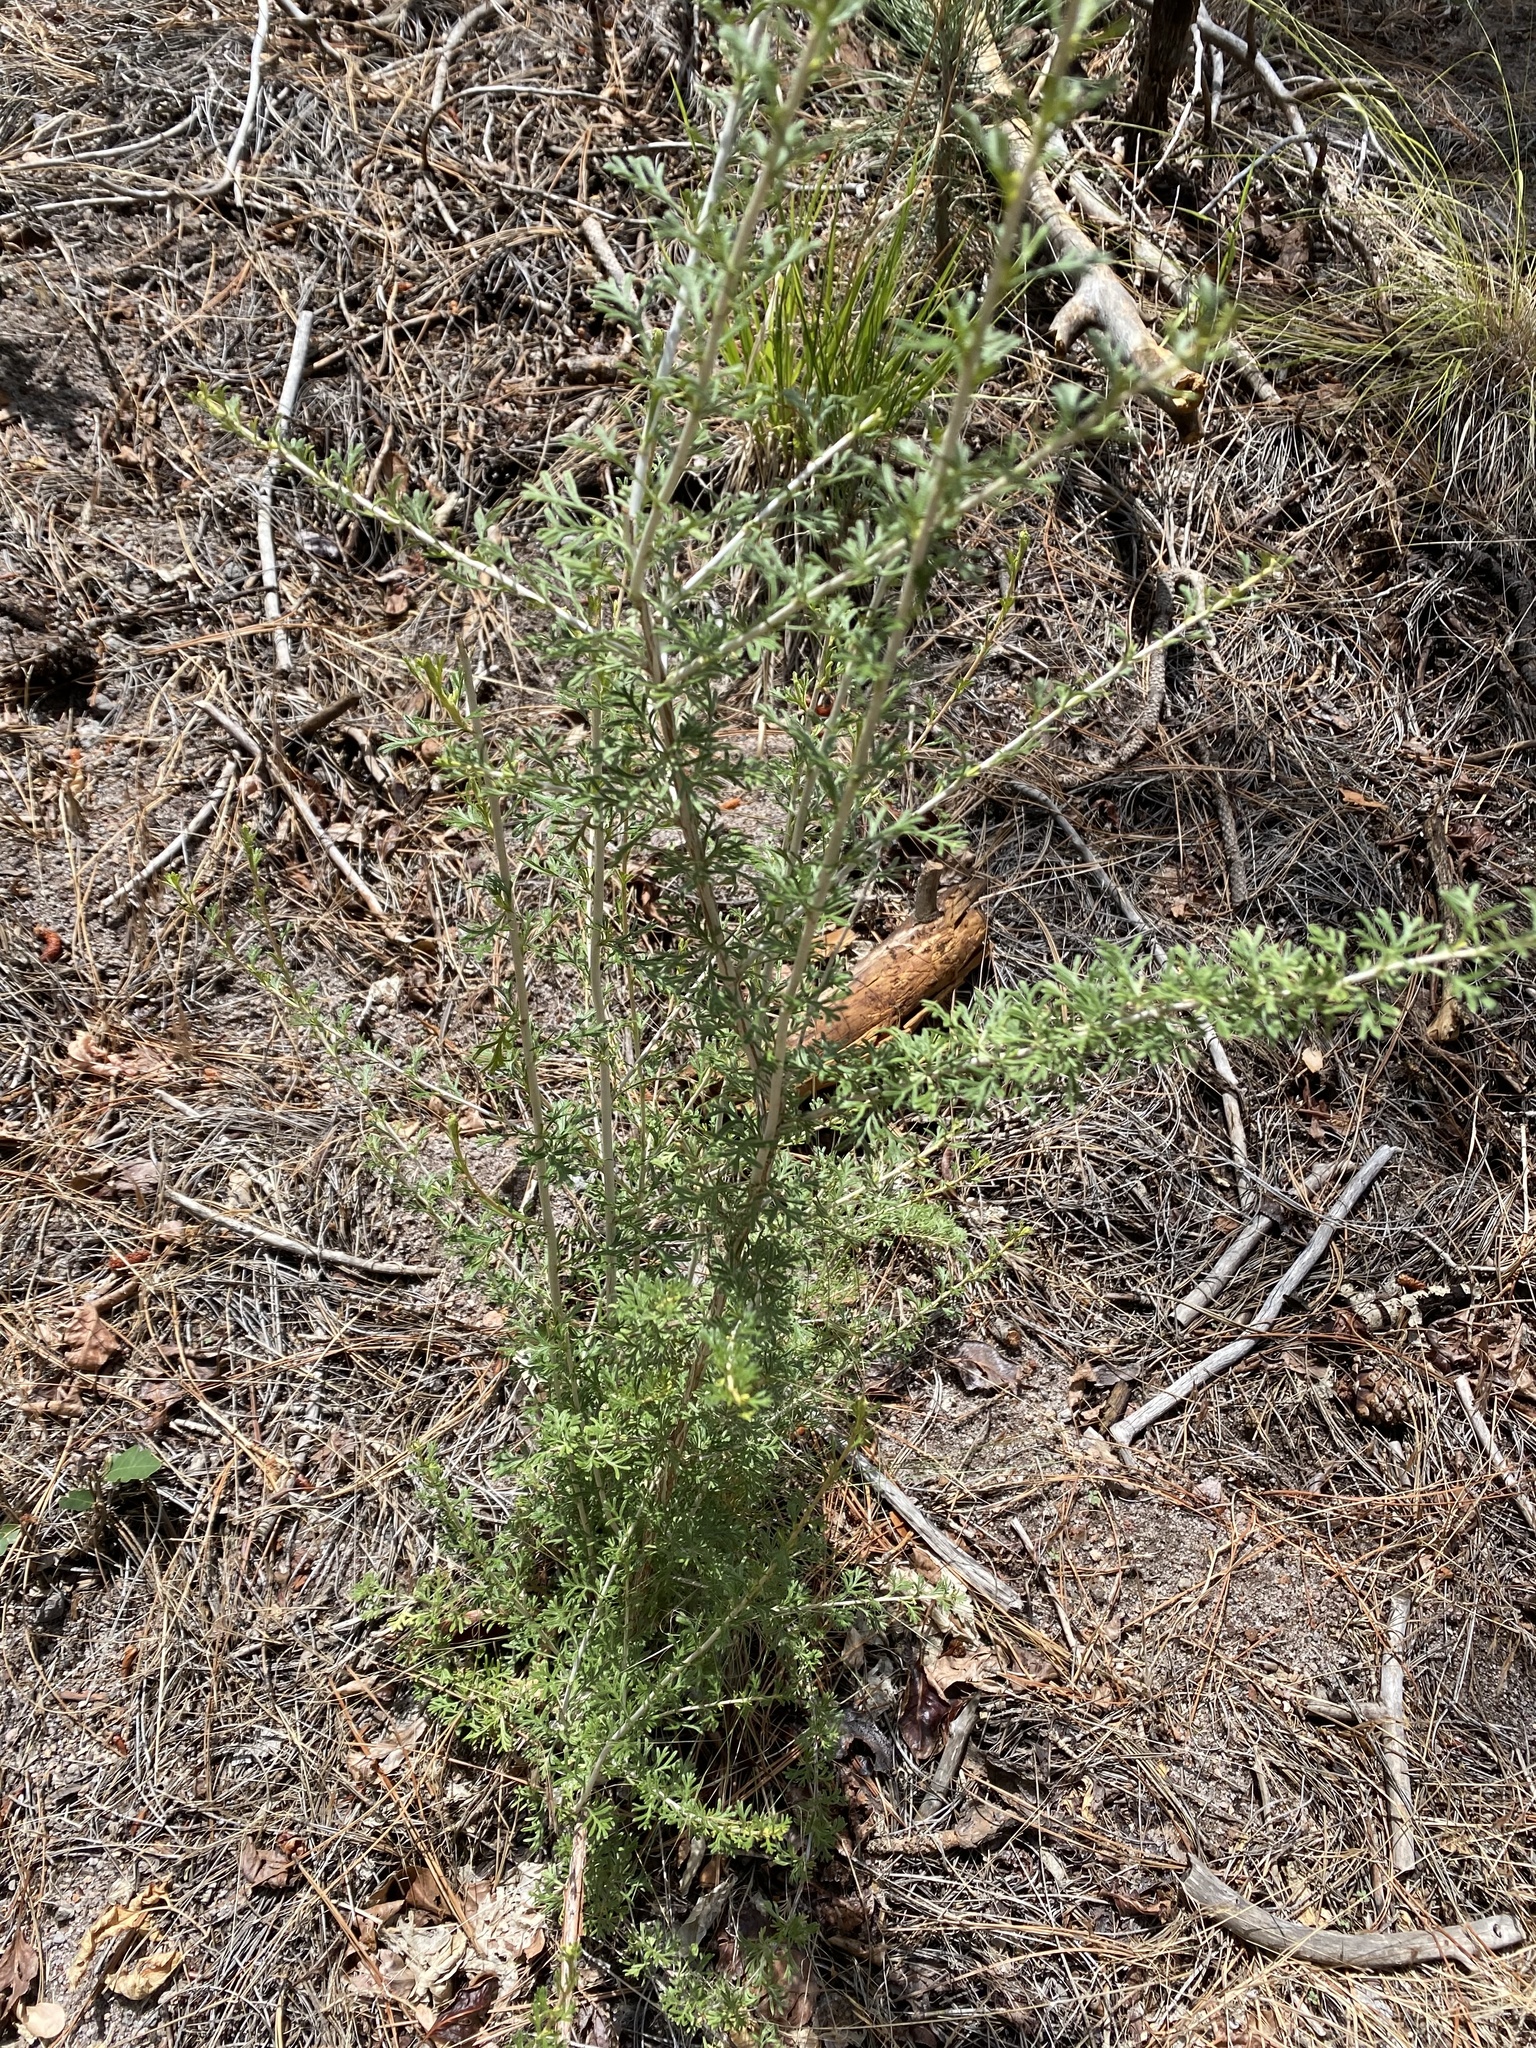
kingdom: Plantae
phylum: Tracheophyta
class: Magnoliopsida
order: Rosales
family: Rosaceae
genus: Fallugia
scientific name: Fallugia paradoxa
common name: Apache-plume
